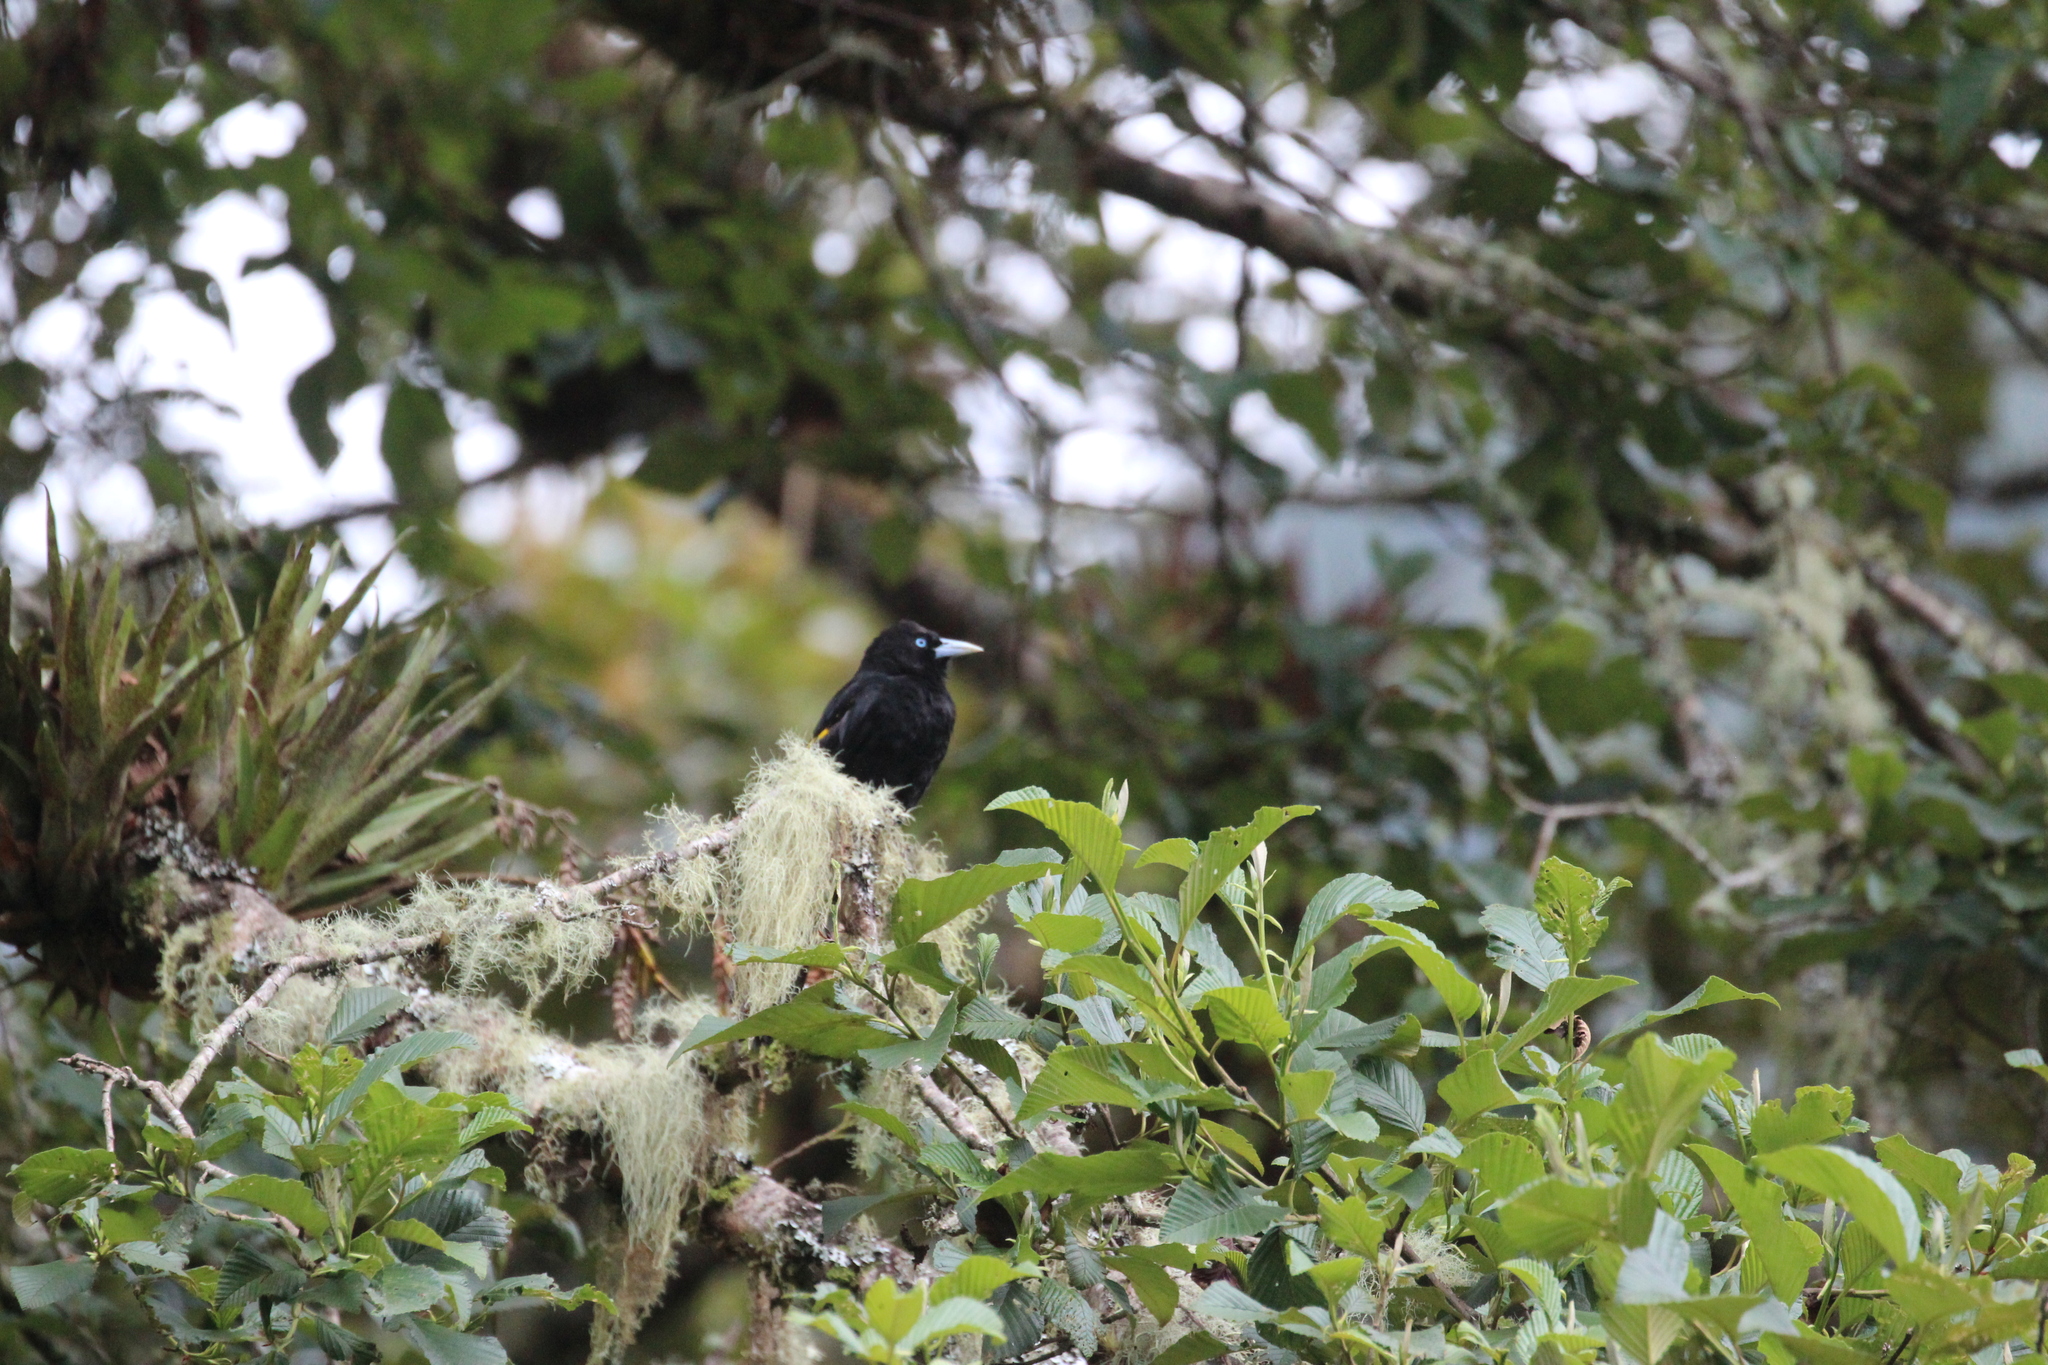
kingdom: Animalia
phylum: Chordata
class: Aves
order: Passeriformes
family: Icteridae
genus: Cacicus
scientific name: Cacicus chrysonotus
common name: Southern mountain cacique
